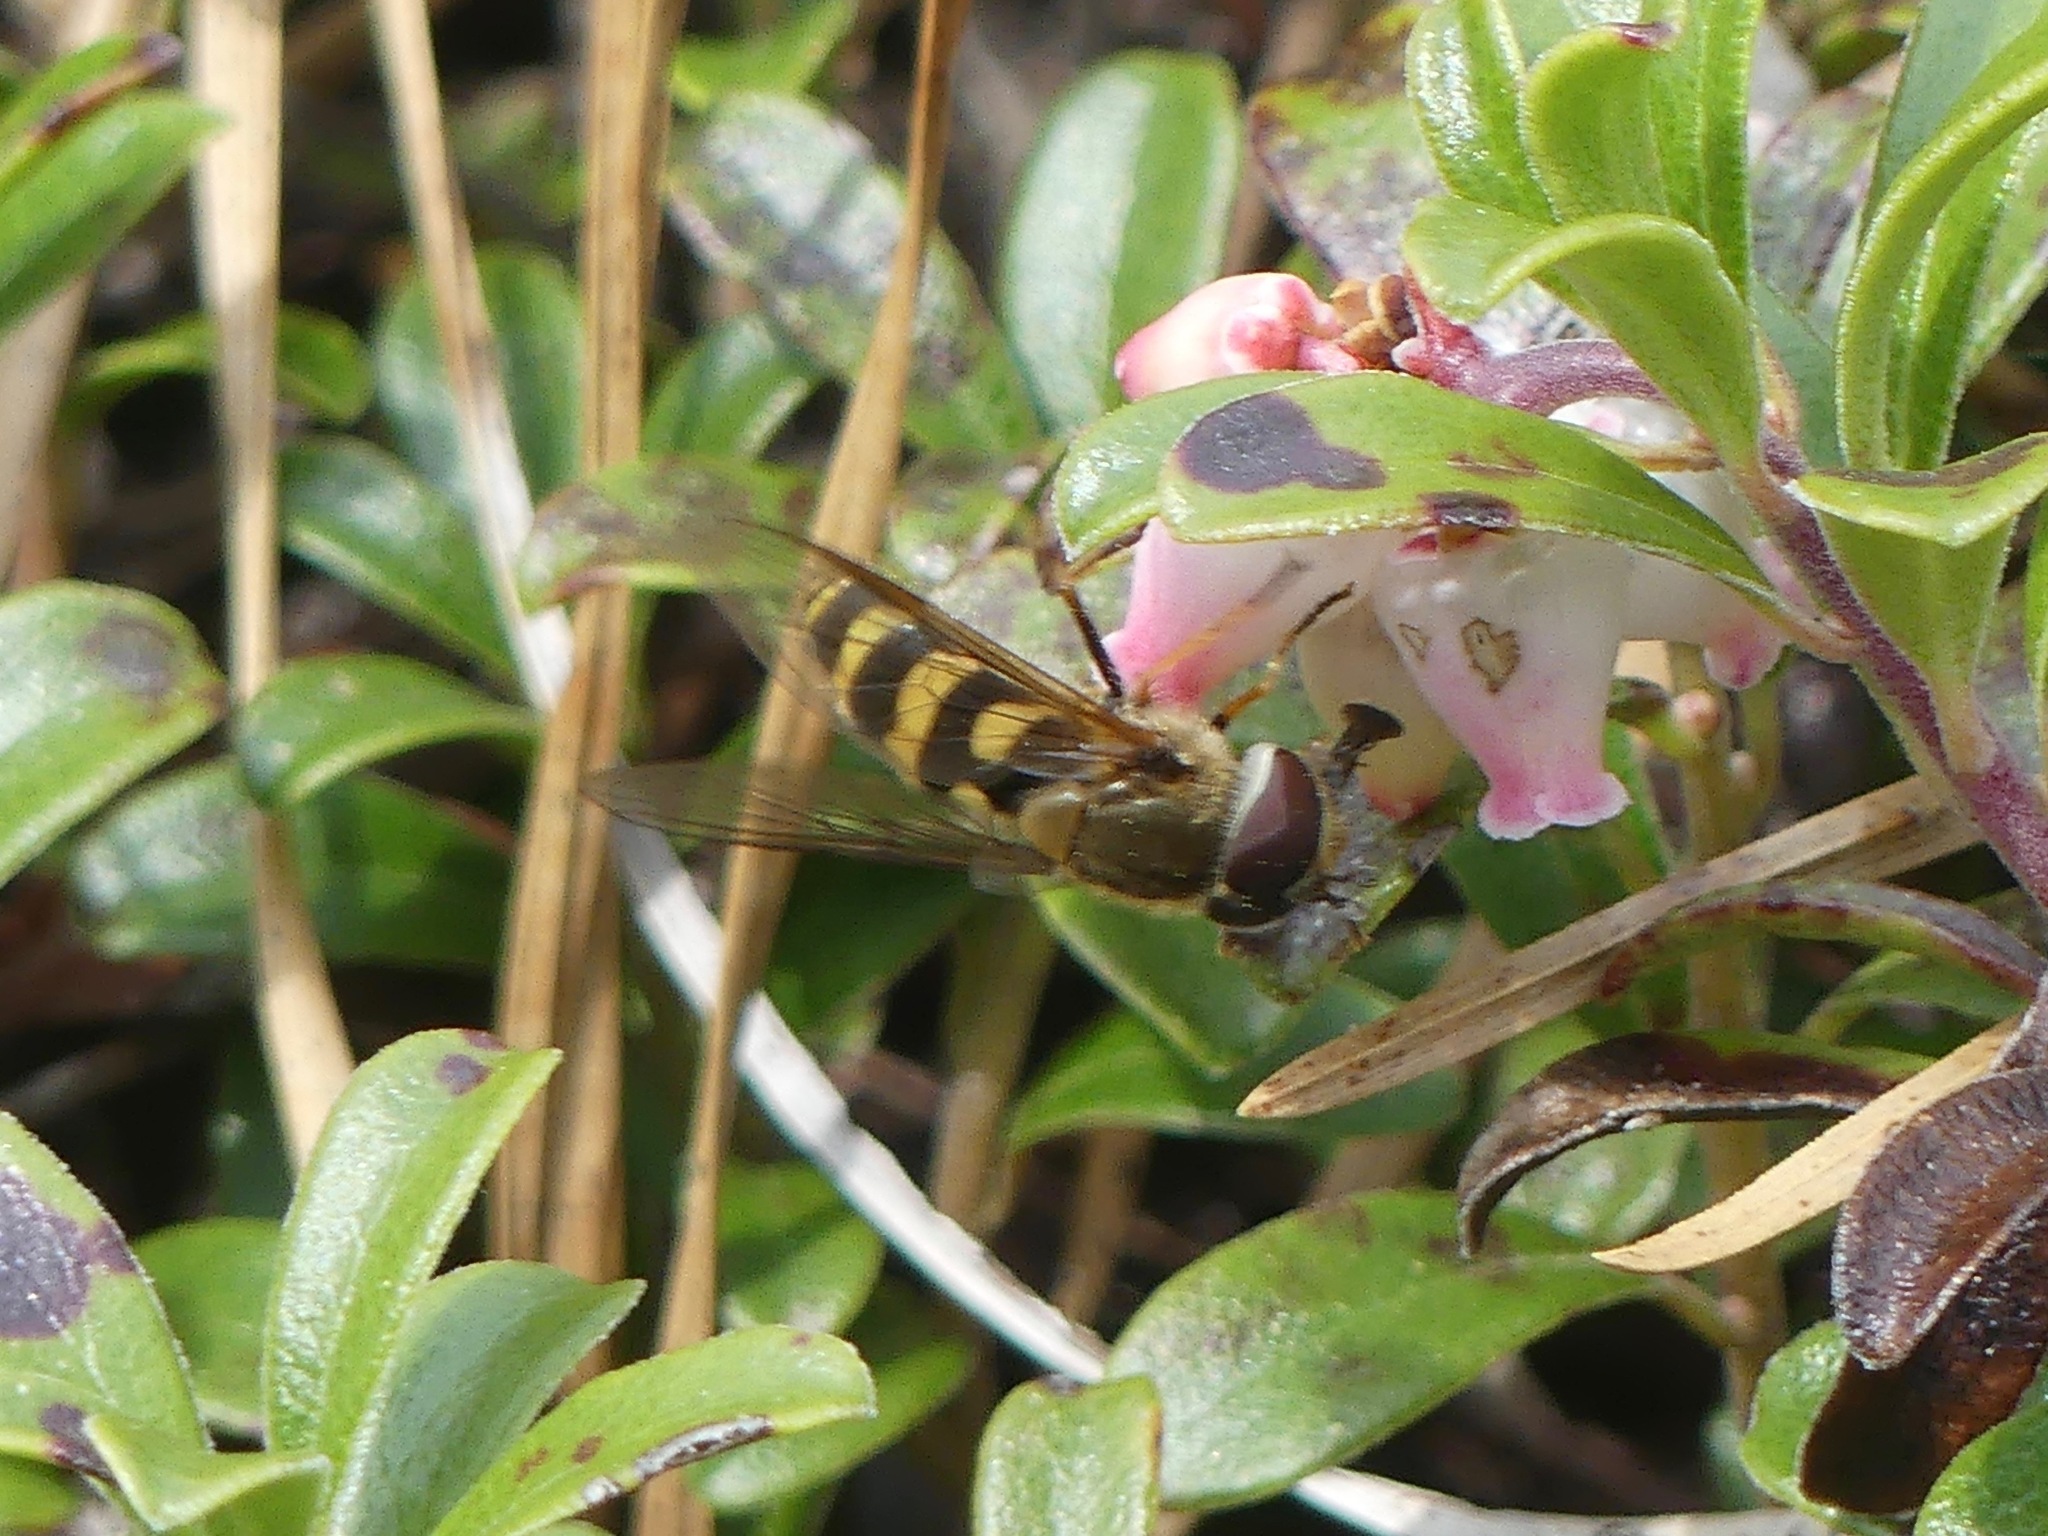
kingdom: Animalia
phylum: Arthropoda
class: Insecta
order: Diptera
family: Syrphidae
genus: Syrphus
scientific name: Syrphus
